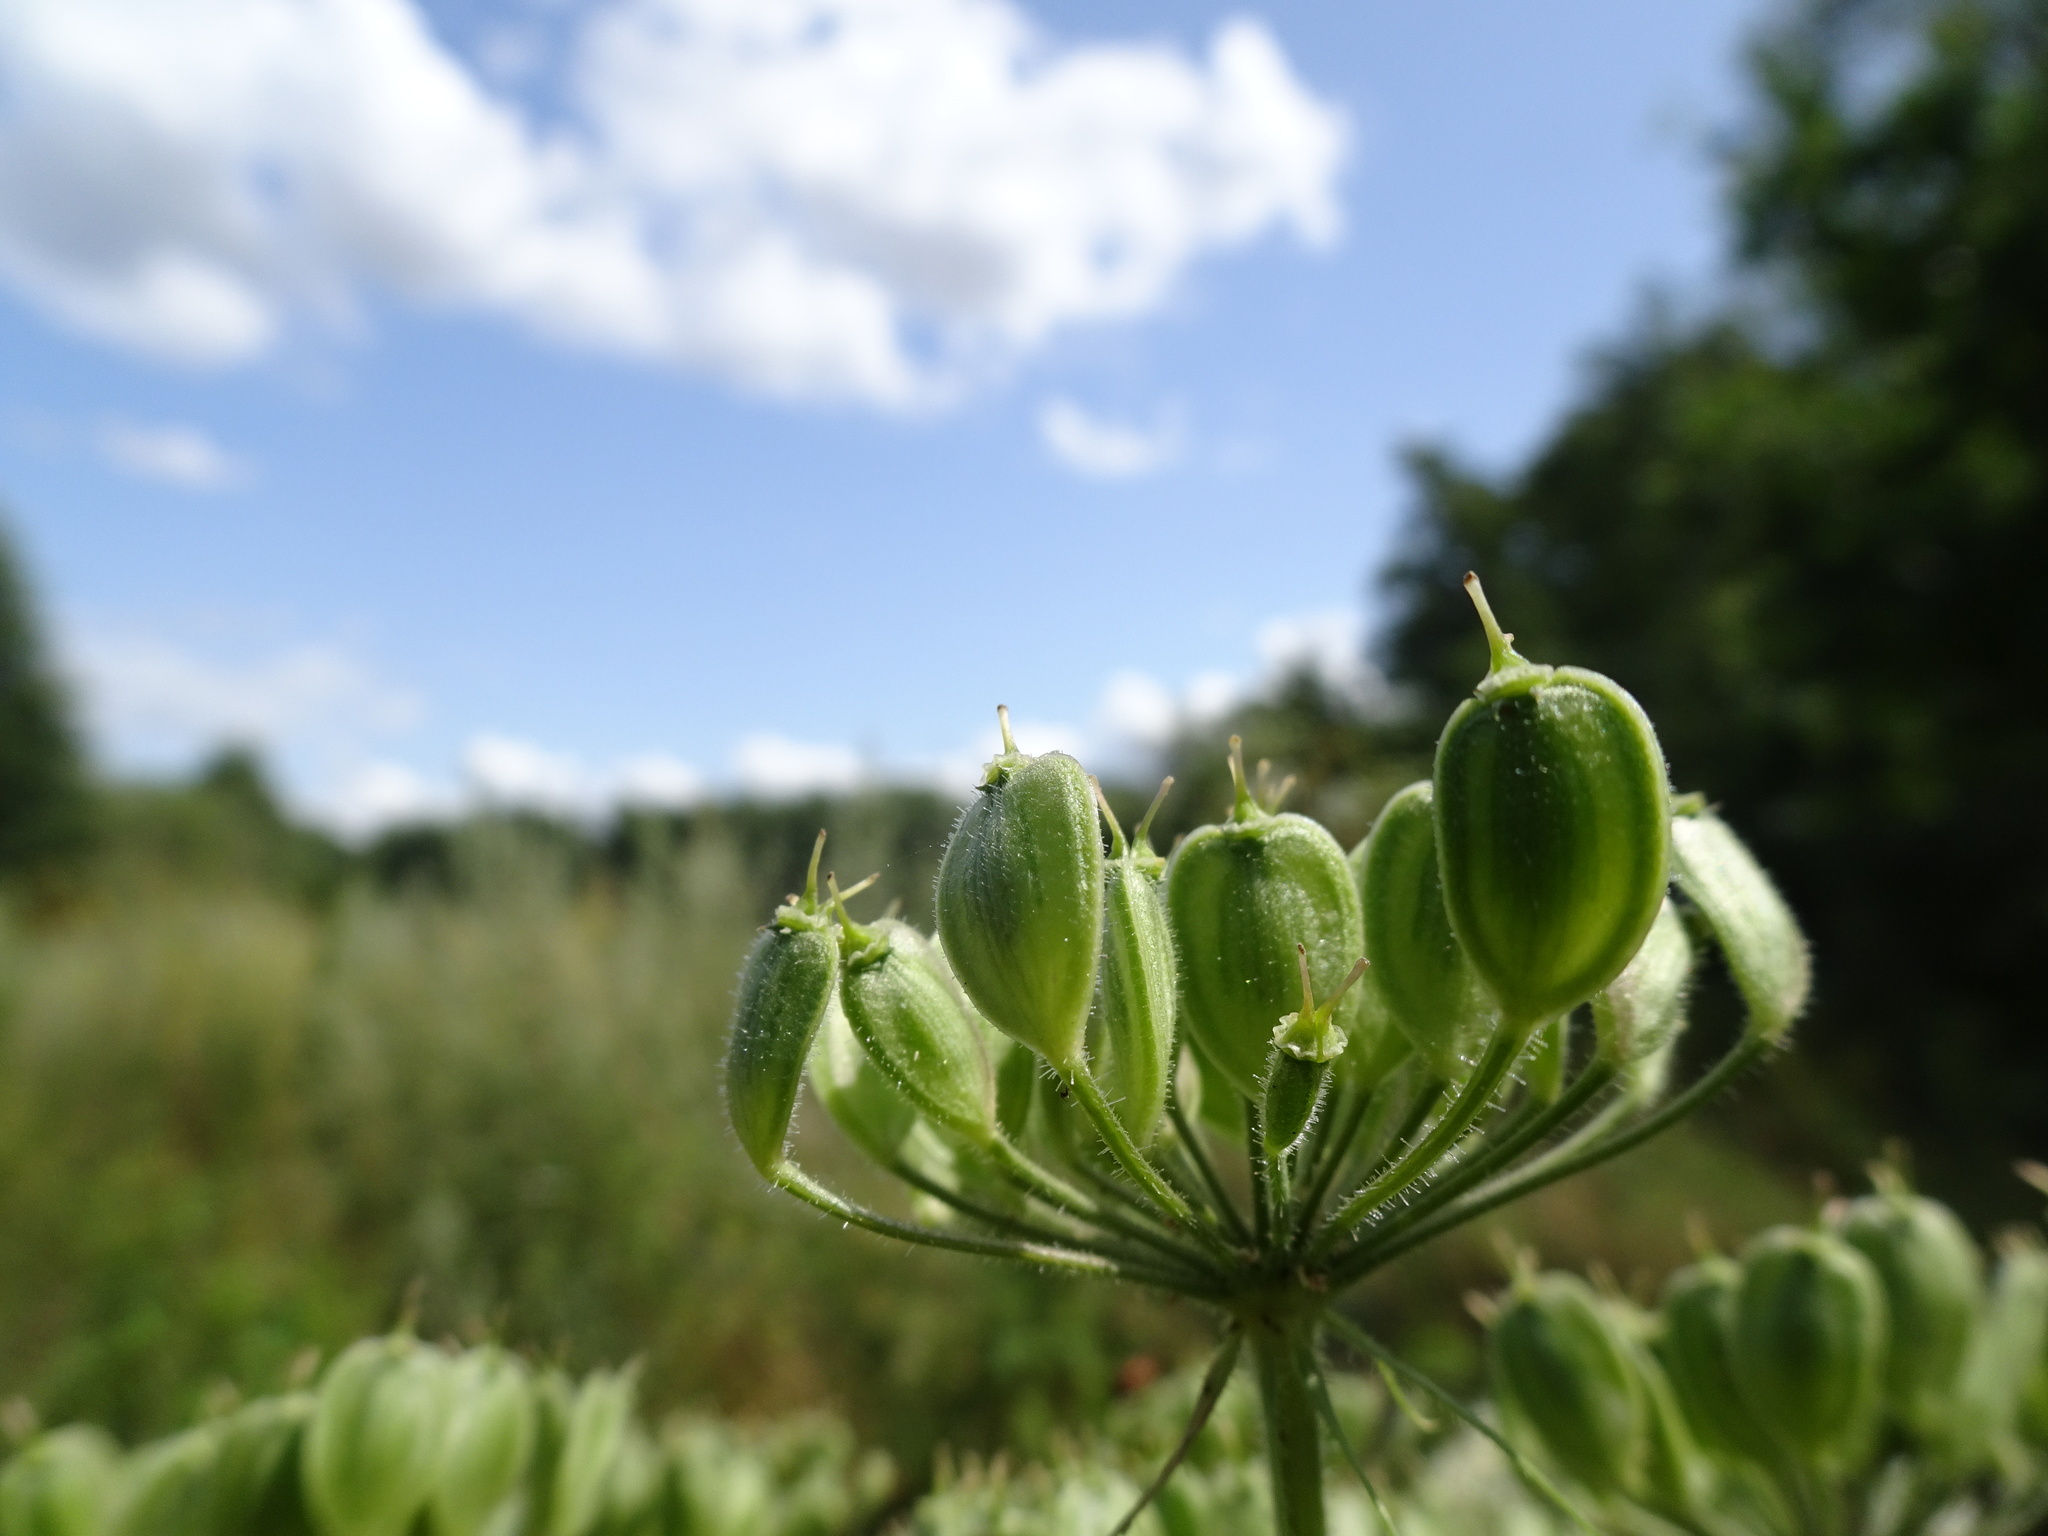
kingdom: Plantae
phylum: Tracheophyta
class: Magnoliopsida
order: Apiales
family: Apiaceae
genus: Heracleum
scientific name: Heracleum sphondylium
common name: Hogweed
